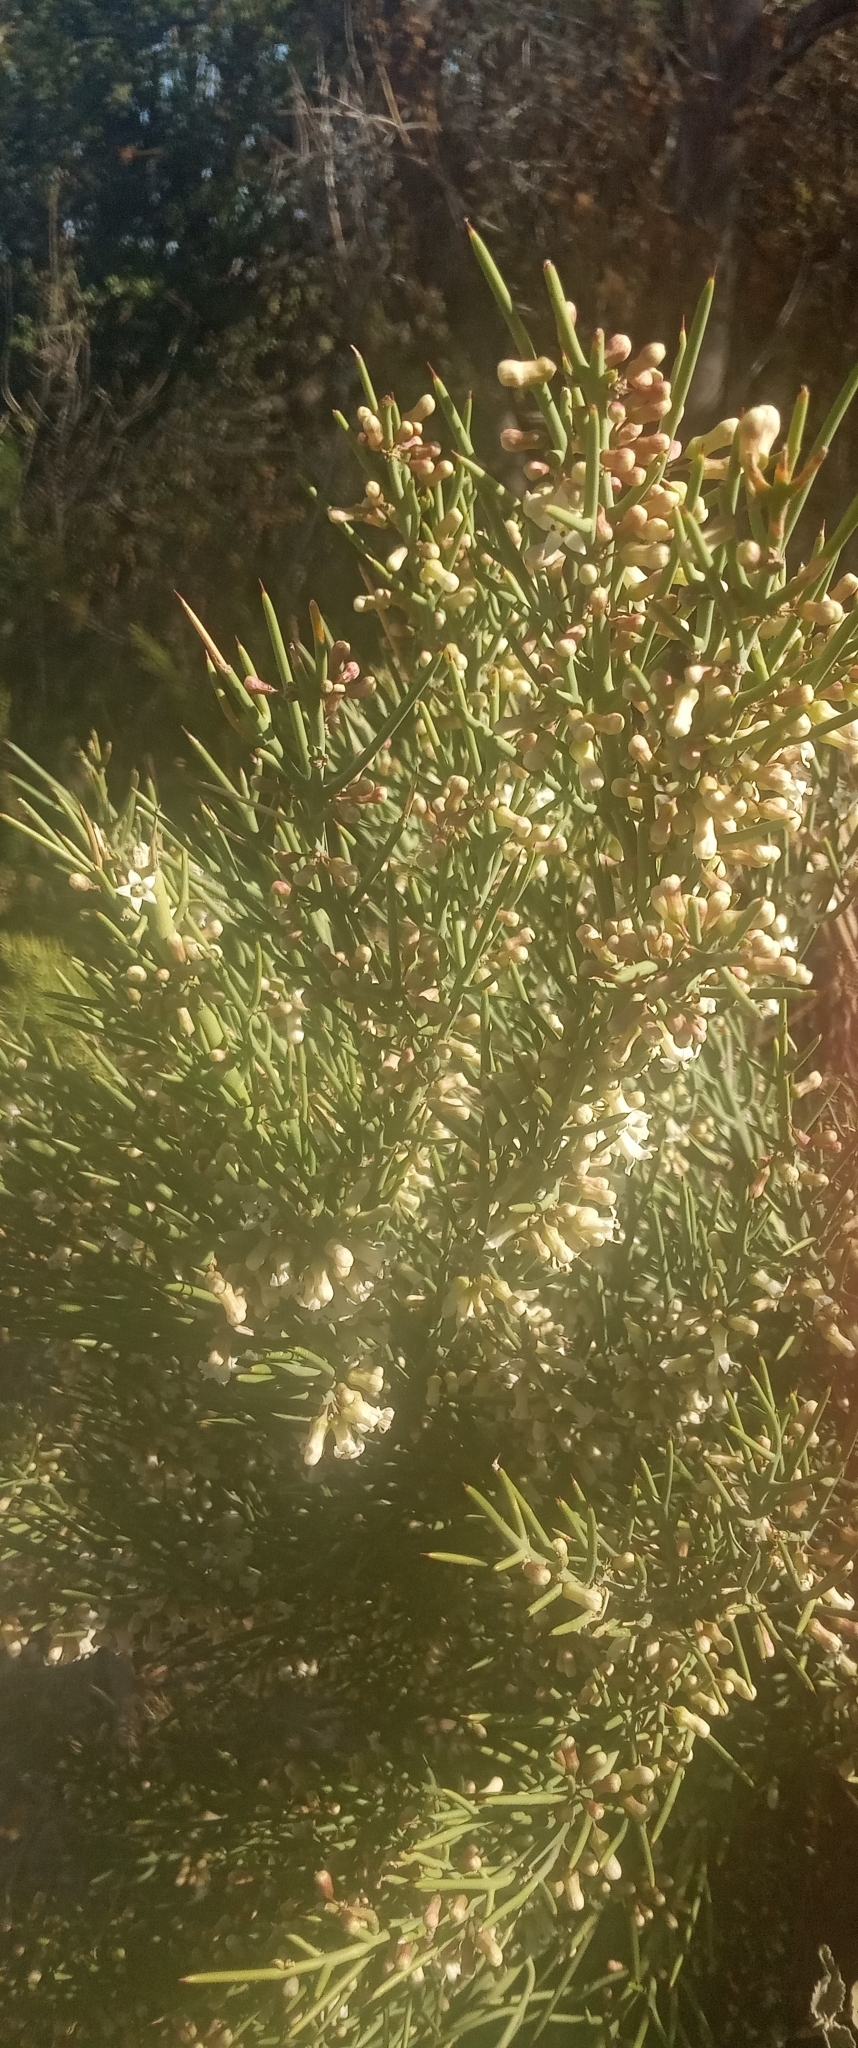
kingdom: Plantae
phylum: Tracheophyta
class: Magnoliopsida
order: Rosales
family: Rhamnaceae
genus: Colletia
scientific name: Colletia spinosissima
